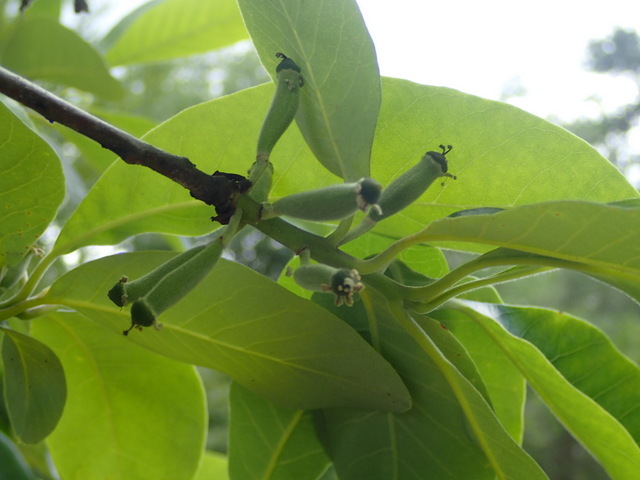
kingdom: Plantae
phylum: Tracheophyta
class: Magnoliopsida
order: Cornales
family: Nyssaceae
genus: Nyssa
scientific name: Nyssa ogeche
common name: Ogeechee tupelo
